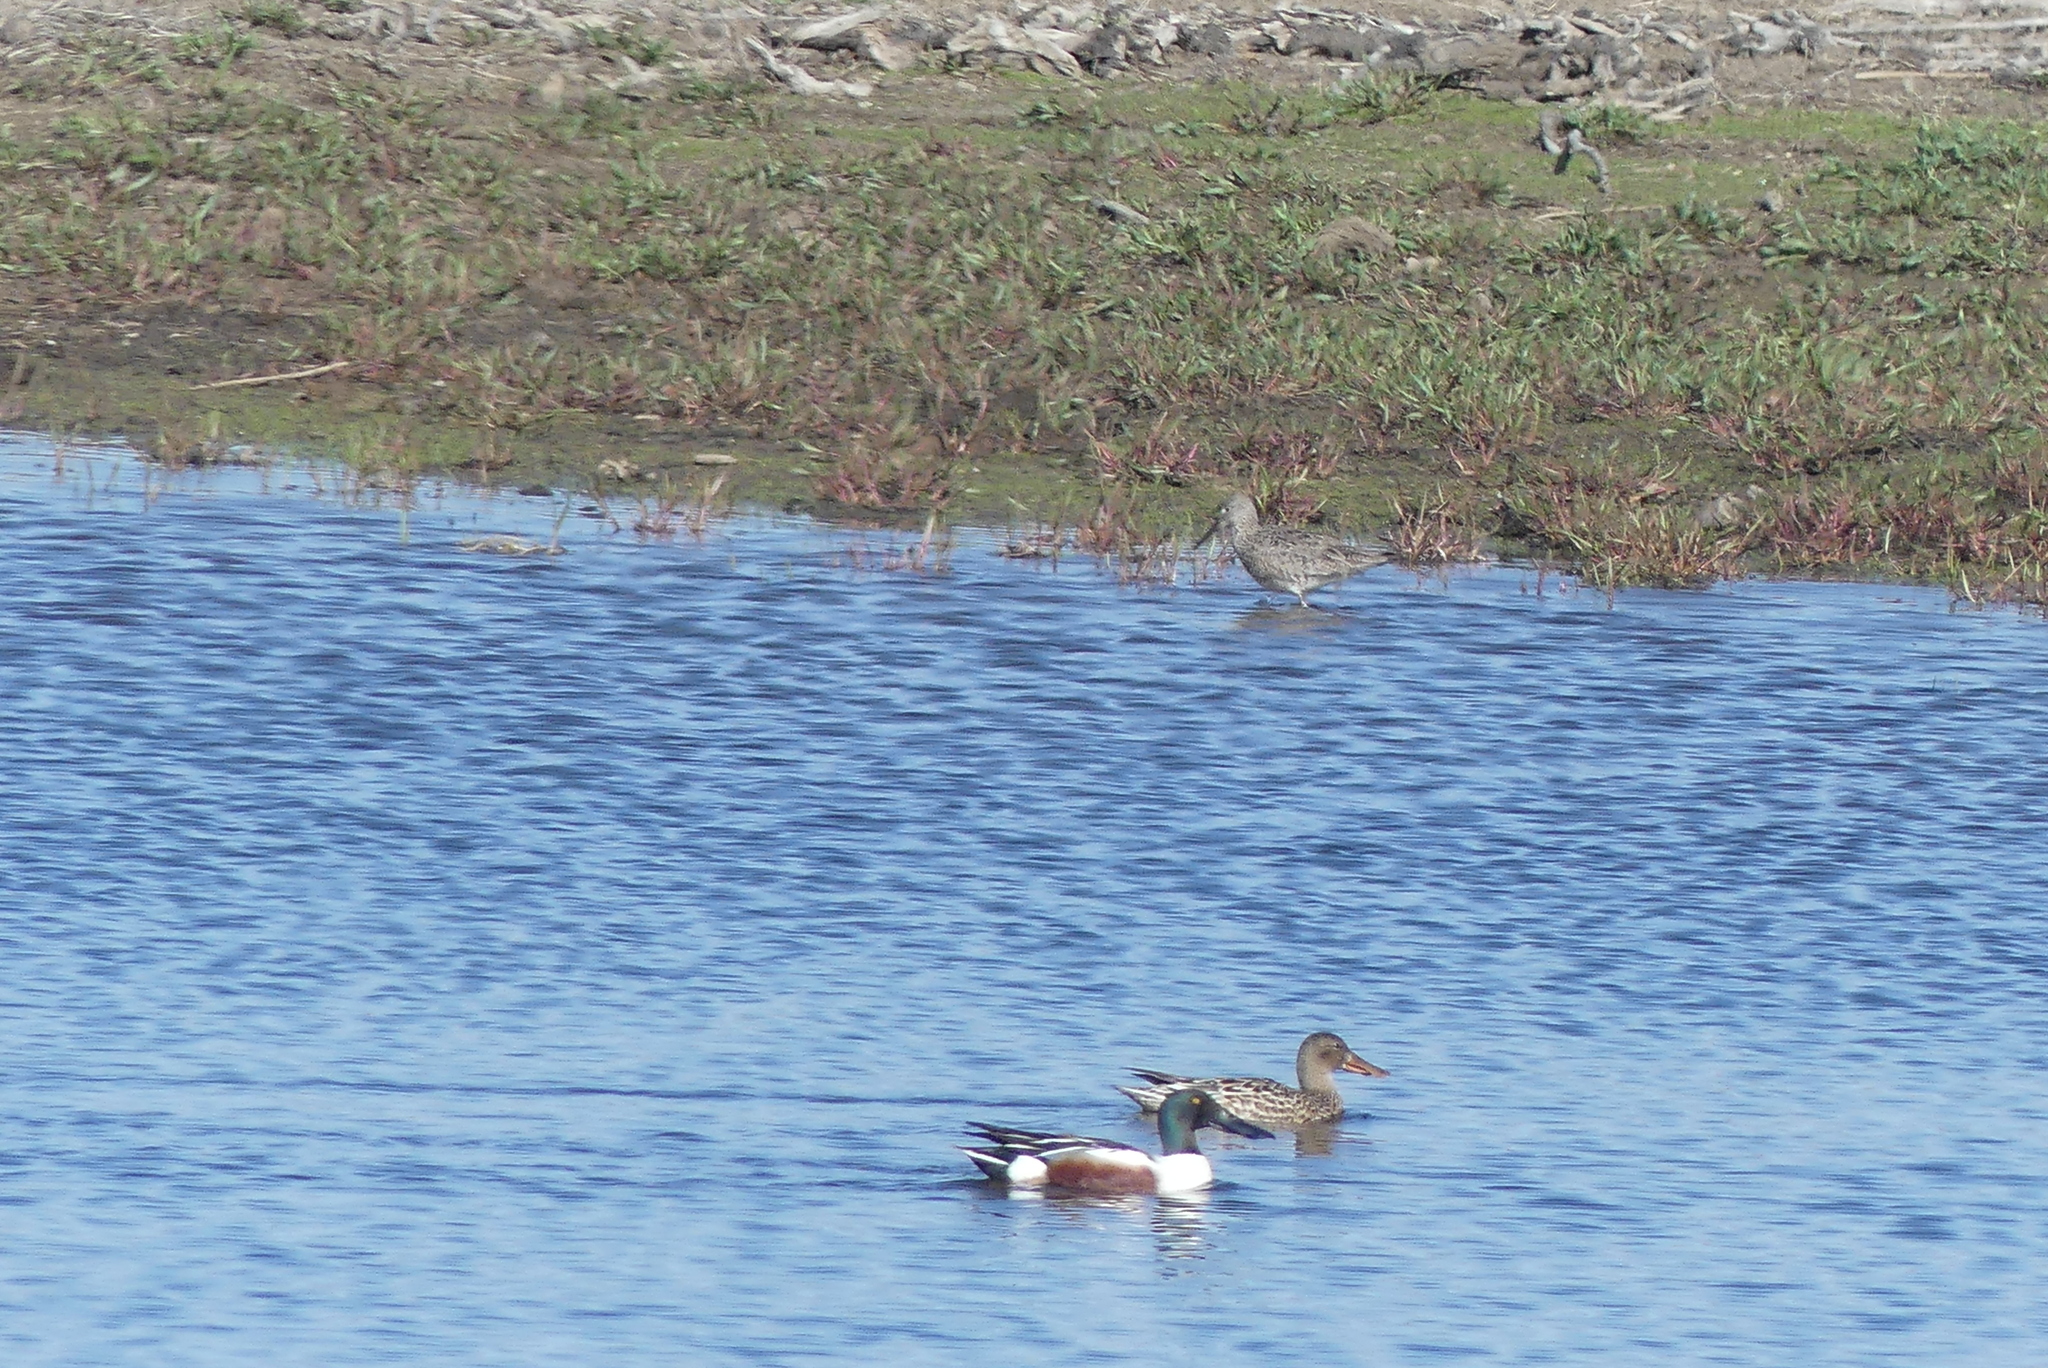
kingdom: Animalia
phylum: Chordata
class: Aves
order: Anseriformes
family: Anatidae
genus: Spatula
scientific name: Spatula clypeata
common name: Northern shoveler
